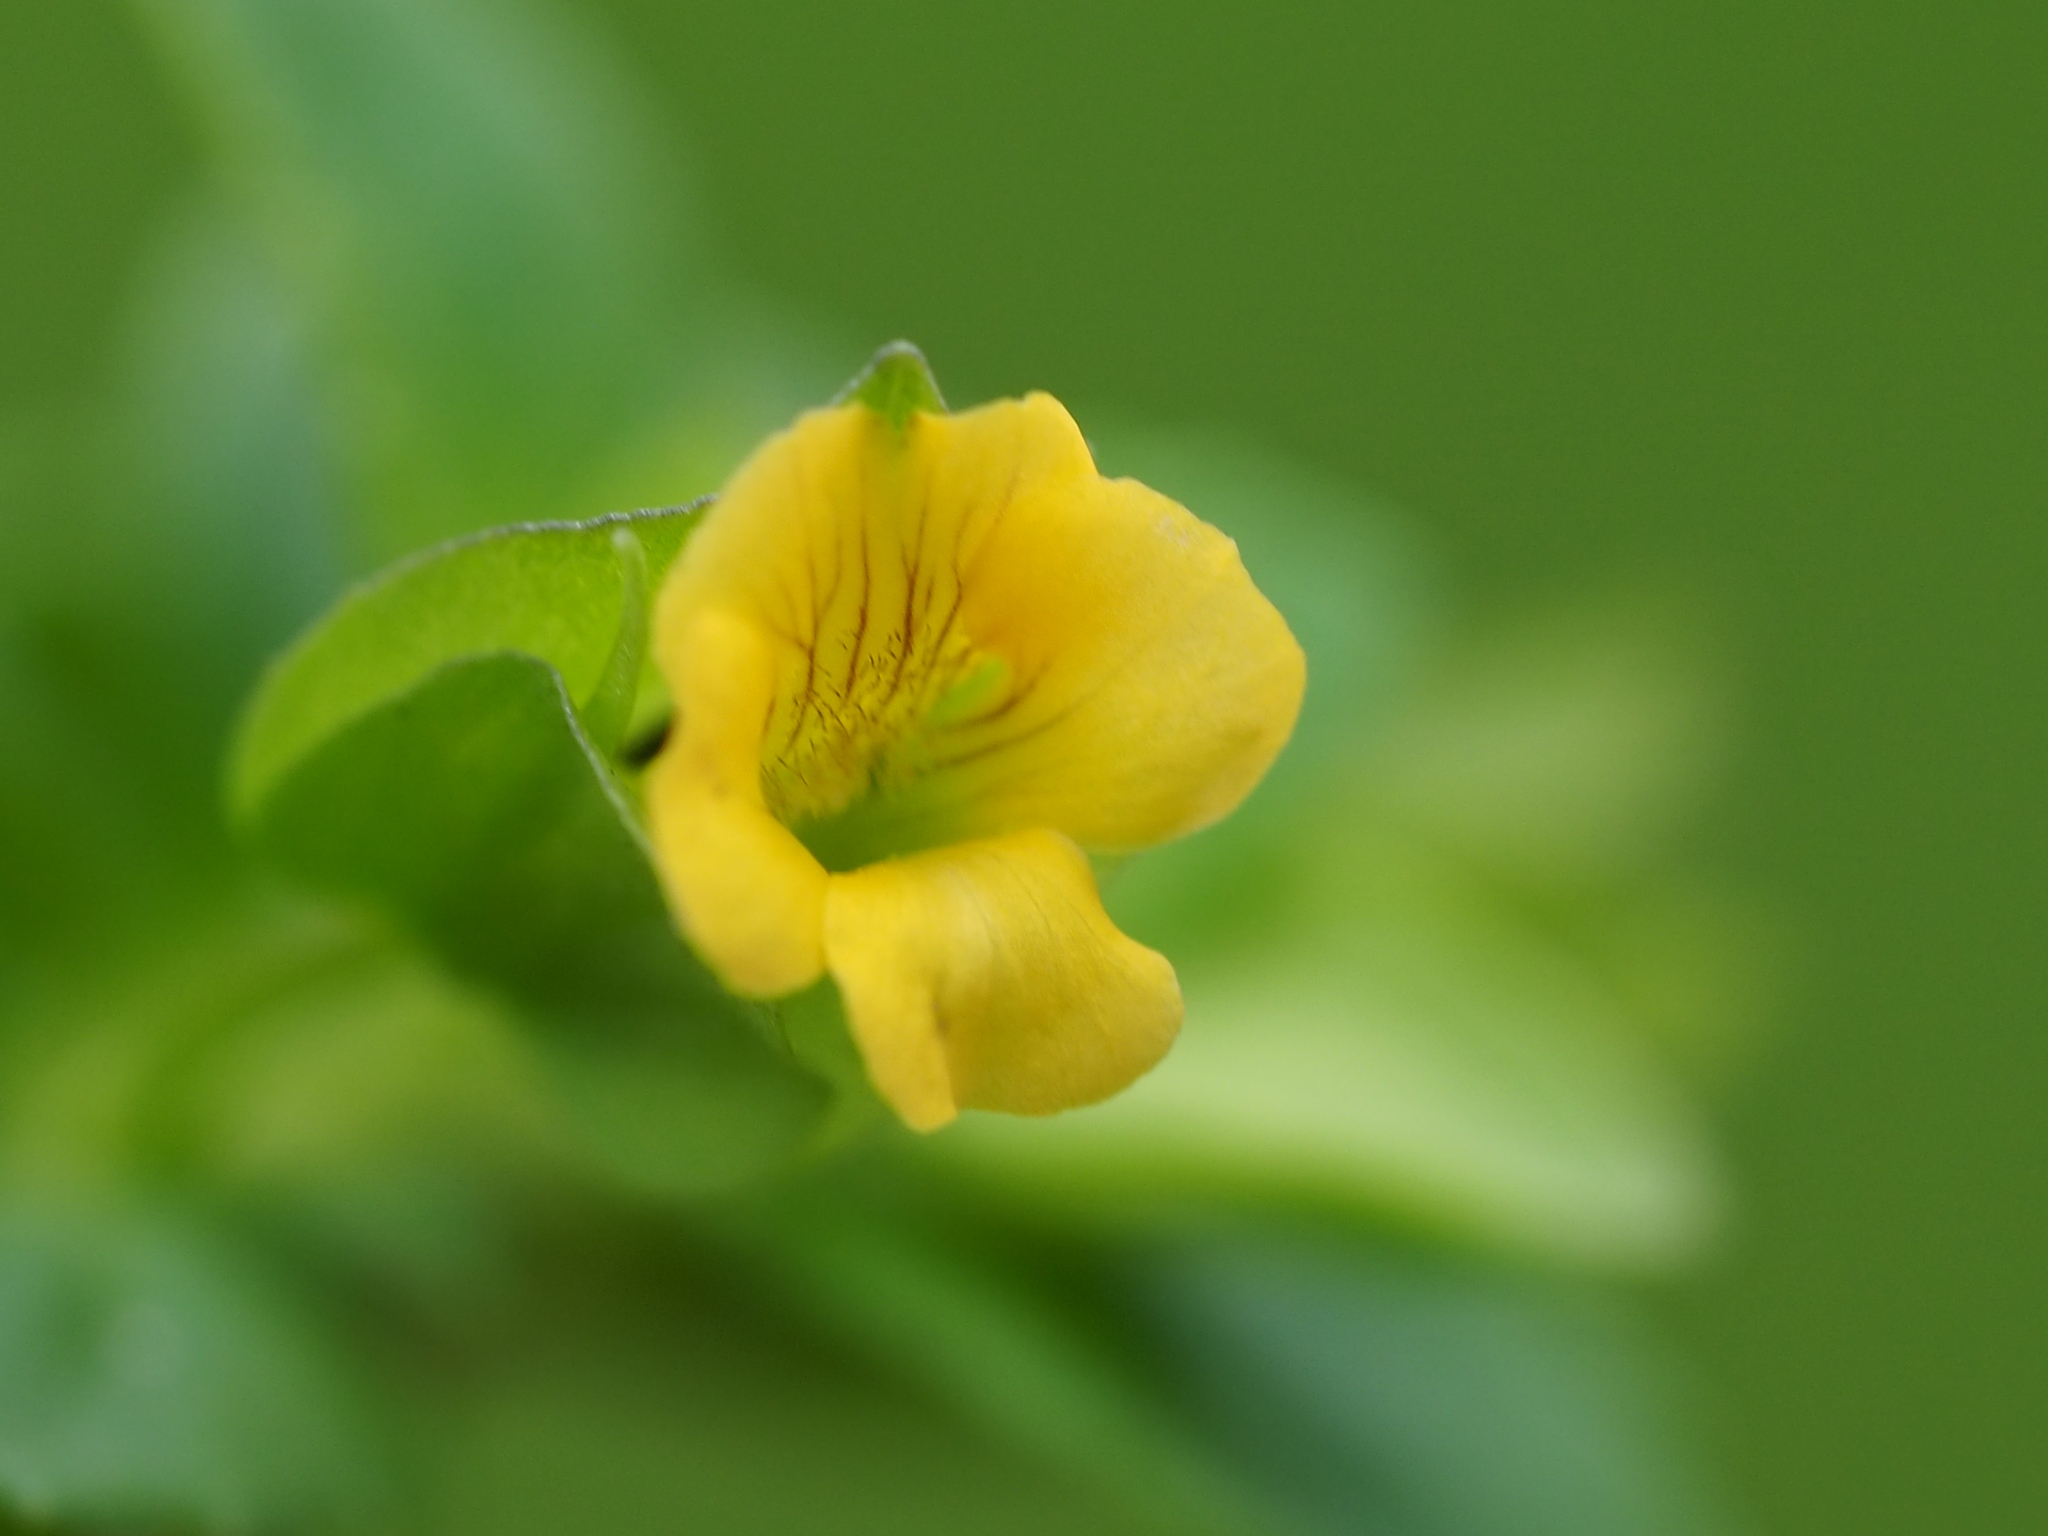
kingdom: Plantae
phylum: Tracheophyta
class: Magnoliopsida
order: Lamiales
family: Plantaginaceae
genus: Mecardonia
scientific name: Mecardonia procumbens
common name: Baby jump-up
